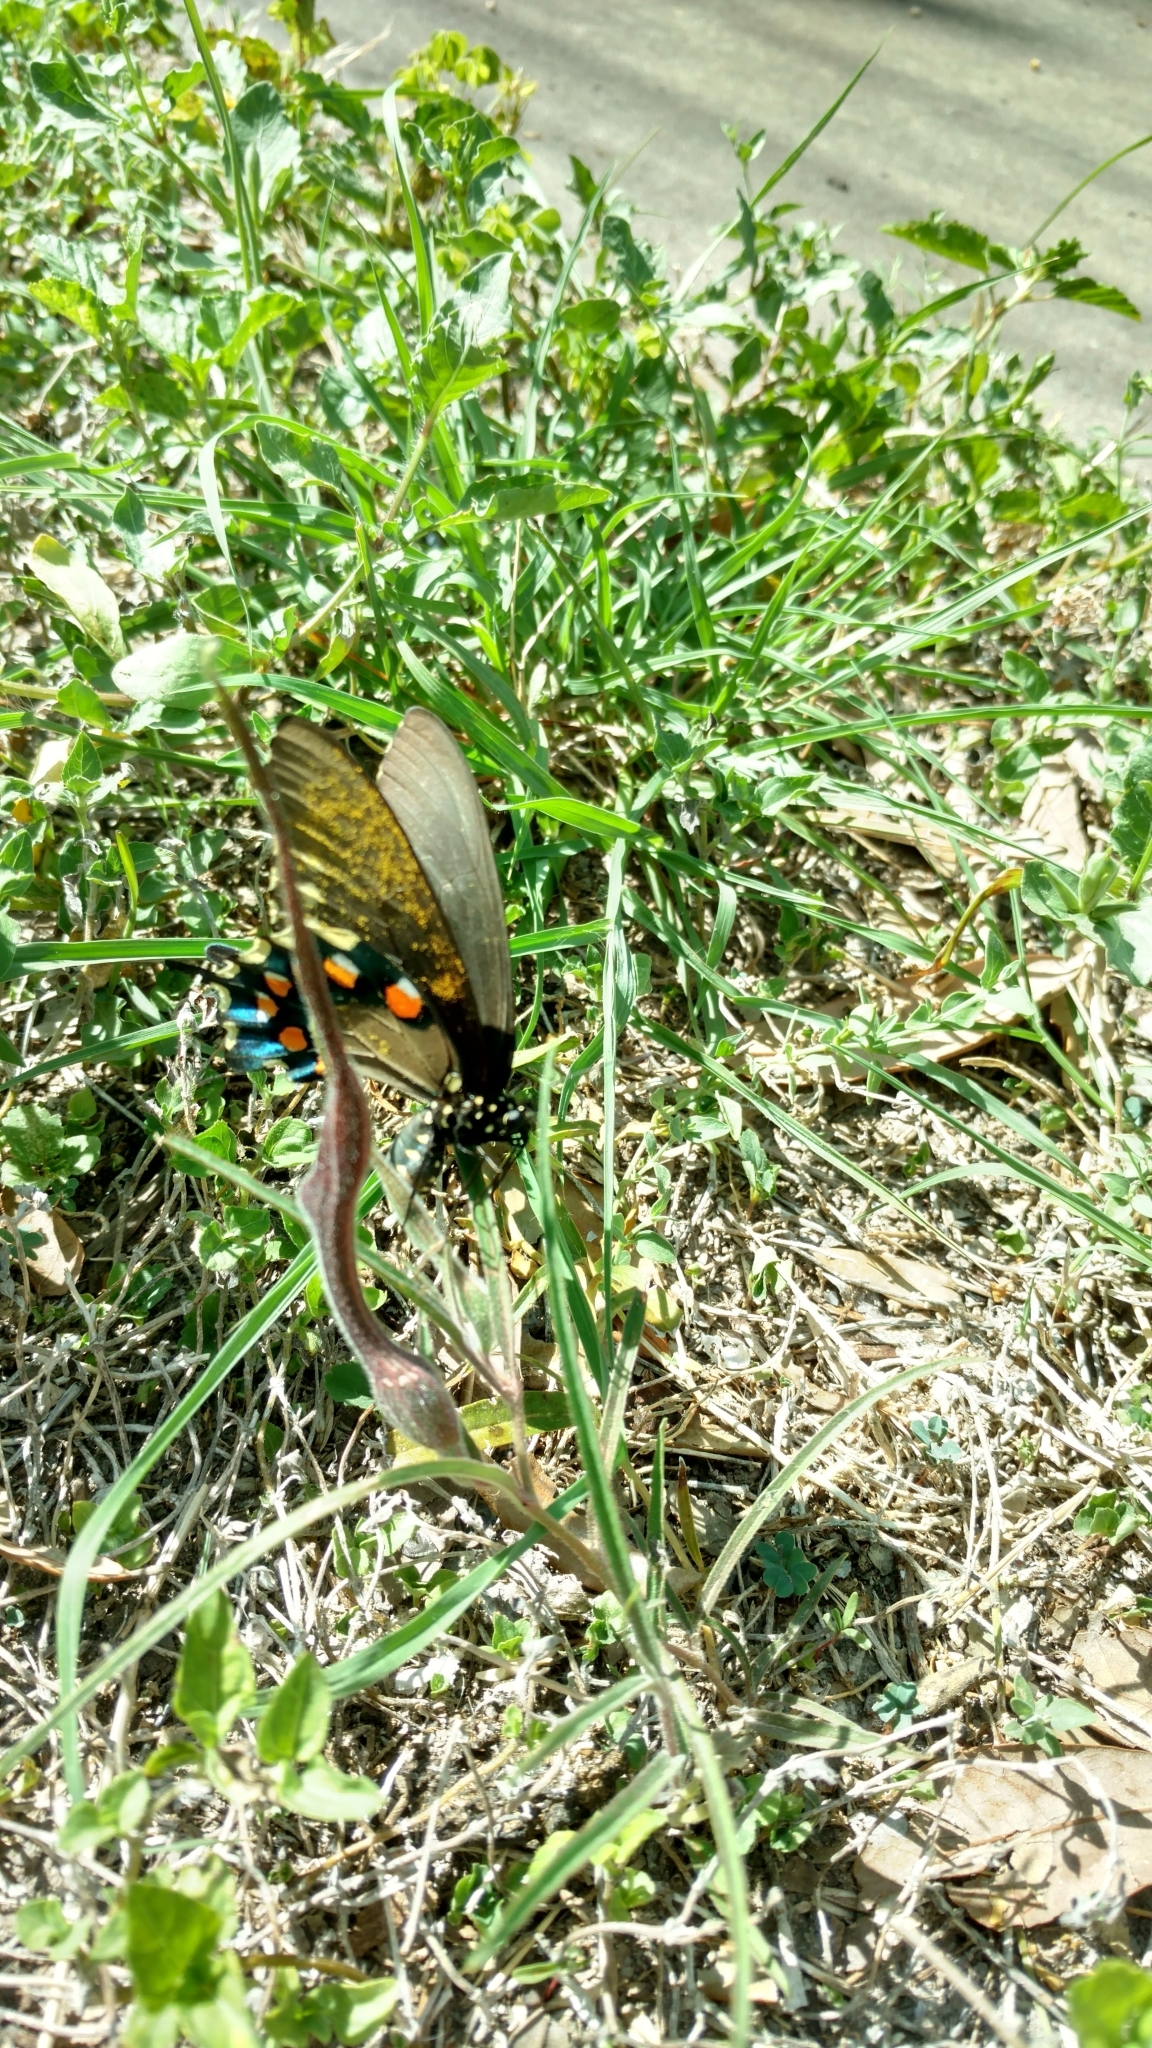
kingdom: Plantae
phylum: Tracheophyta
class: Magnoliopsida
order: Piperales
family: Aristolochiaceae
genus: Aristolochia
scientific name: Aristolochia erecta
